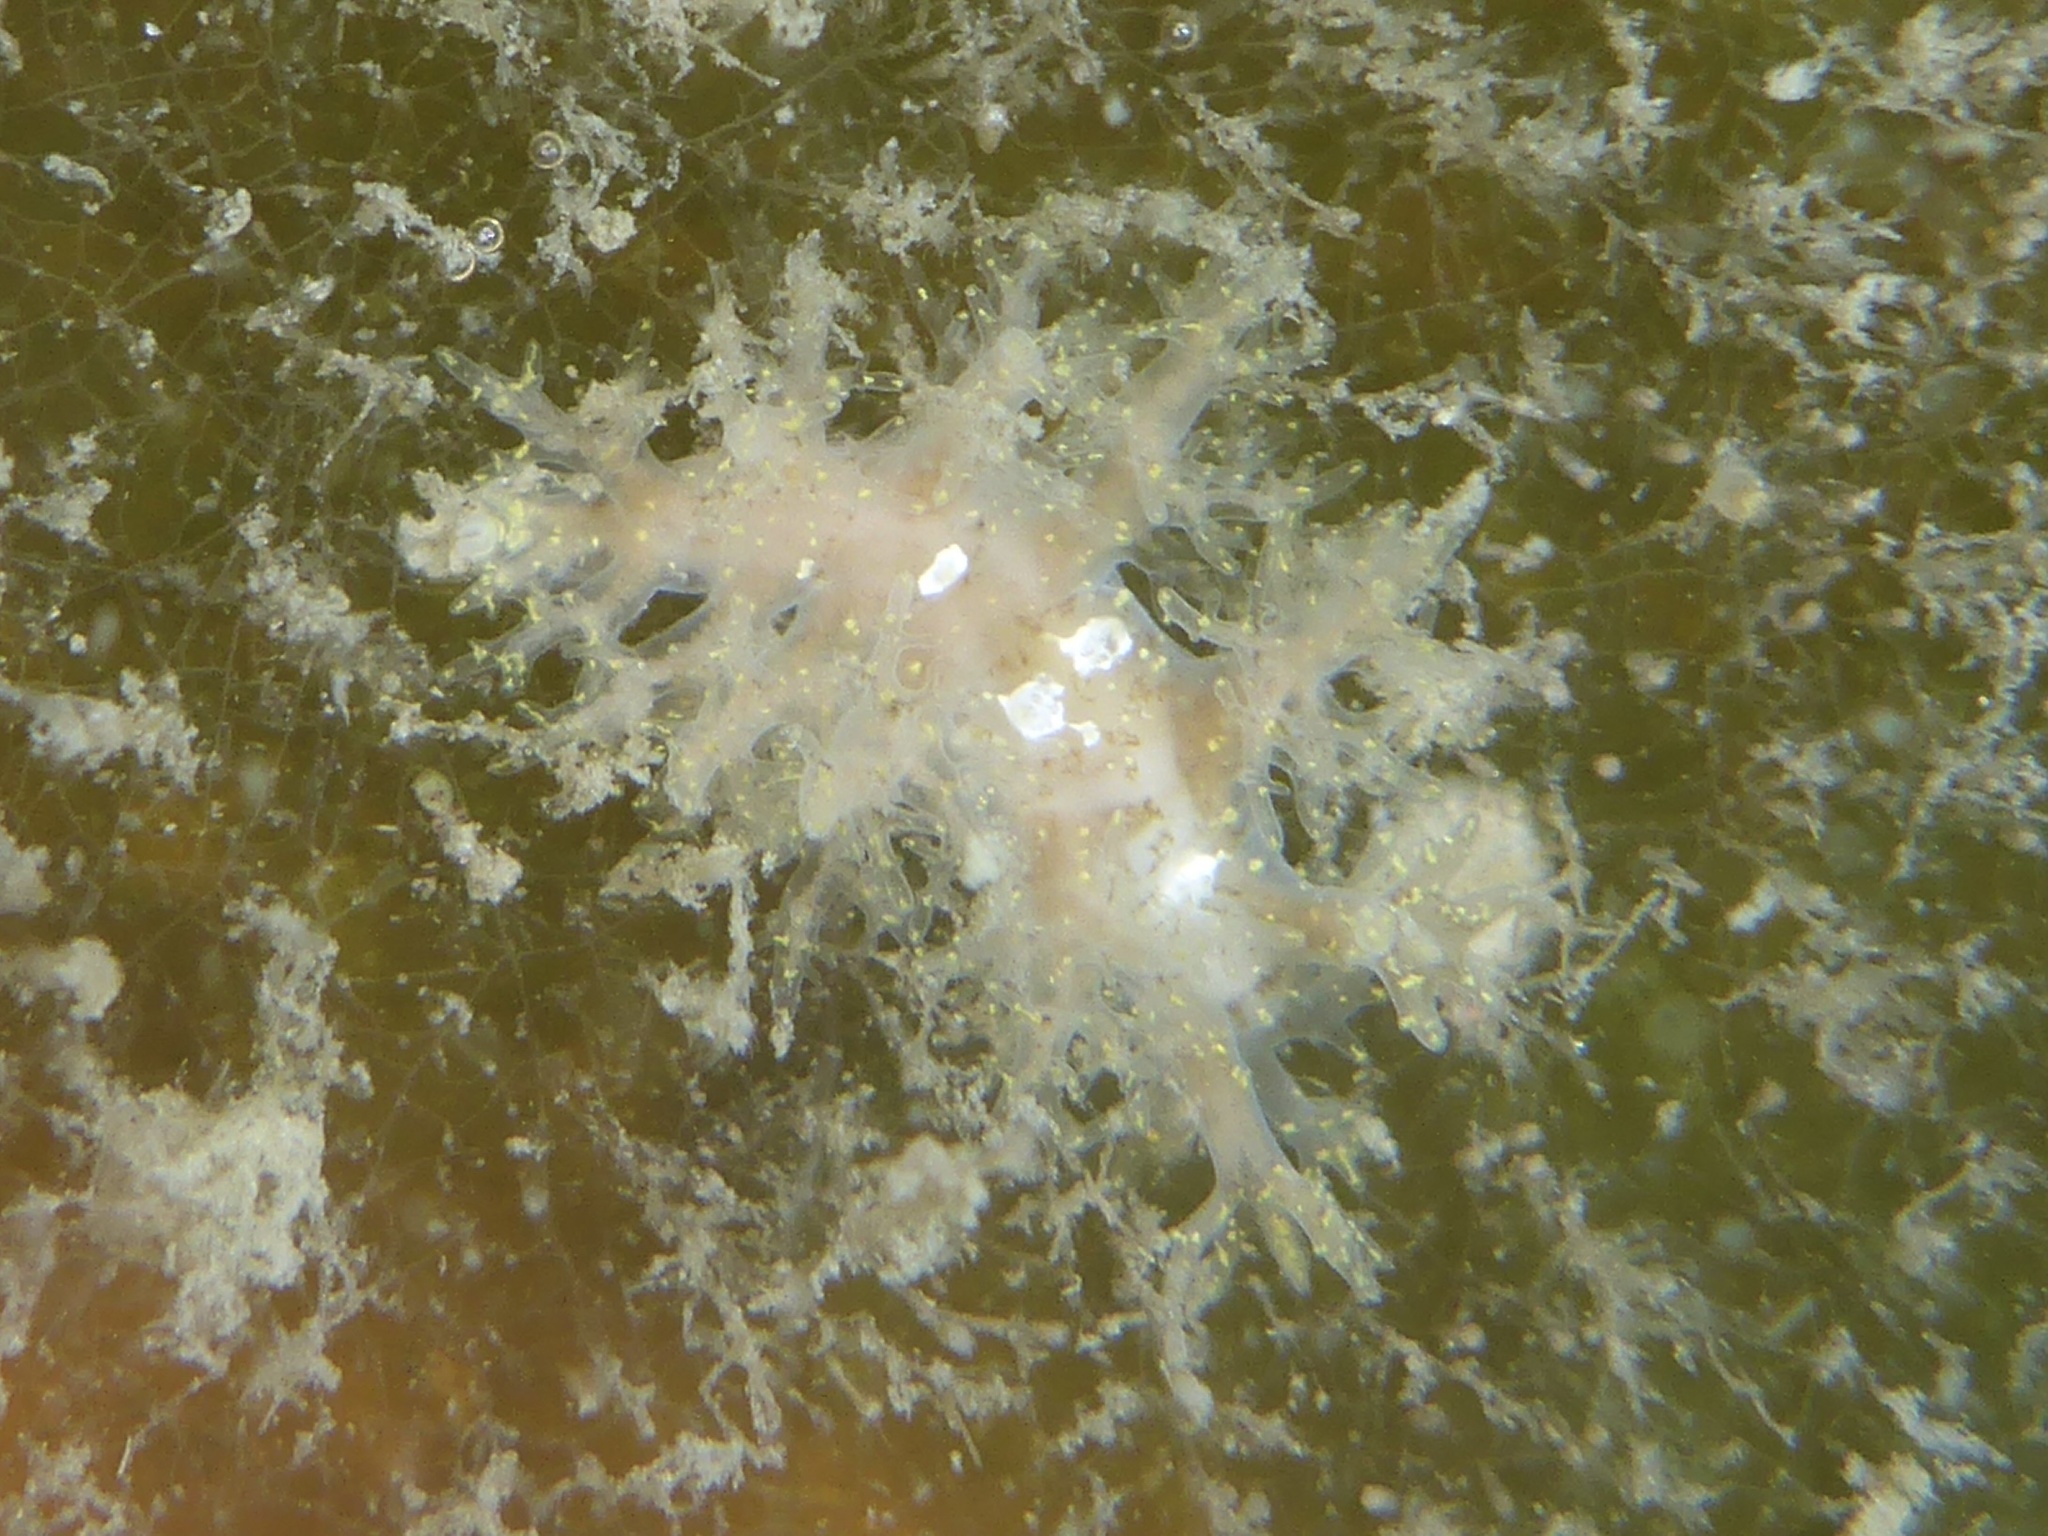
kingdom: Animalia
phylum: Mollusca
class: Gastropoda
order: Nudibranchia
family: Dendronotidae
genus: Dendronotus
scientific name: Dendronotus venustus
